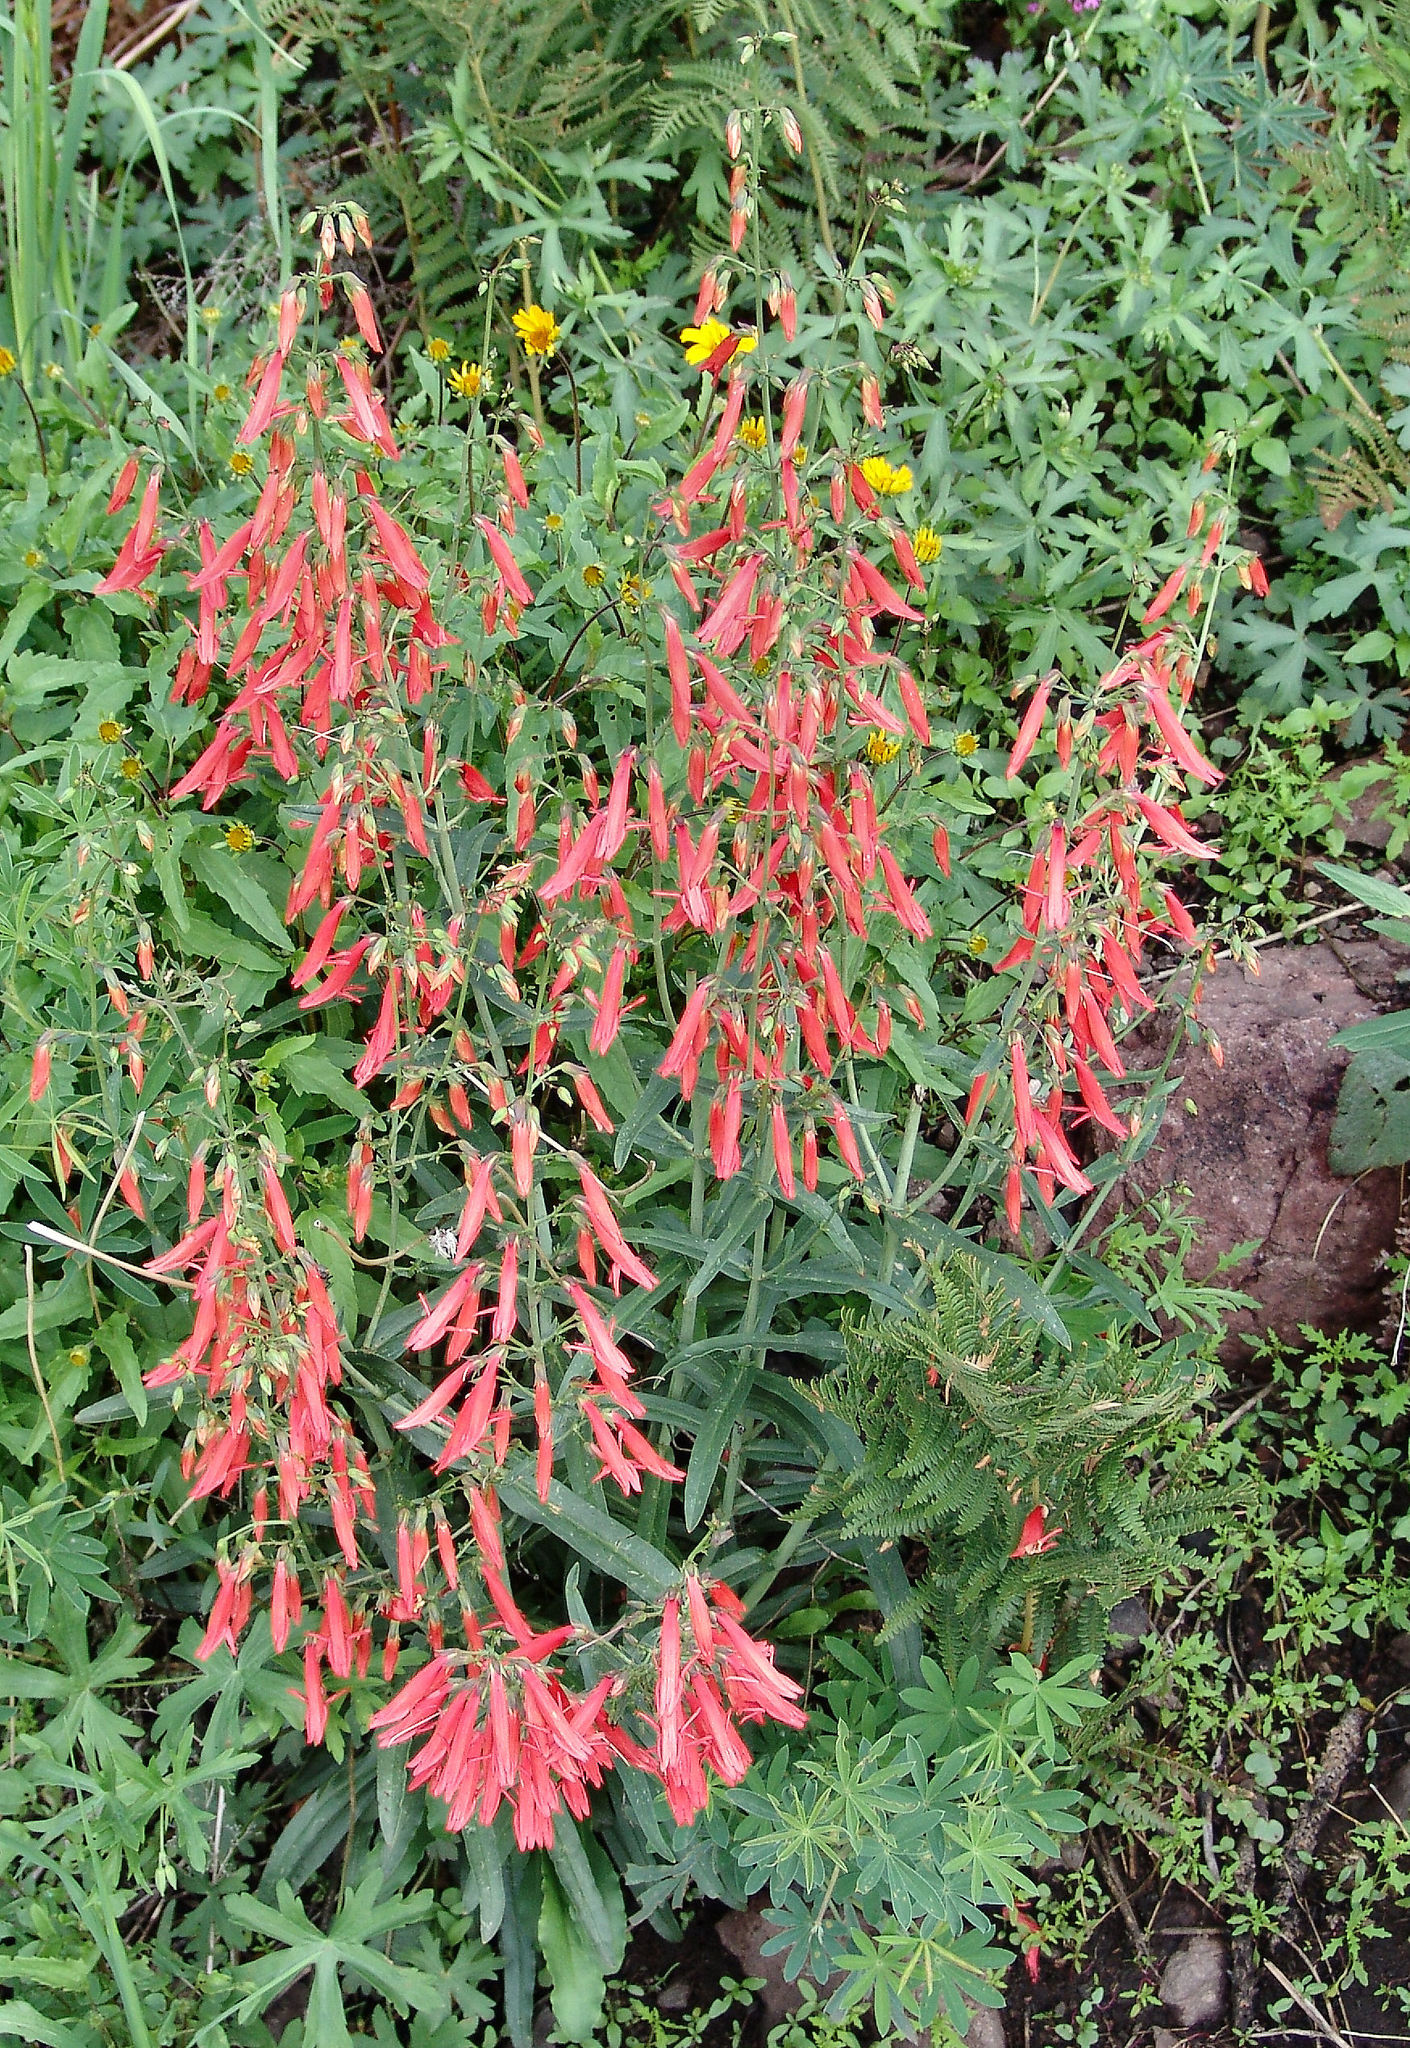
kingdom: Plantae
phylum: Tracheophyta
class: Magnoliopsida
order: Lamiales
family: Plantaginaceae
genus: Penstemon
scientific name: Penstemon barbatus
